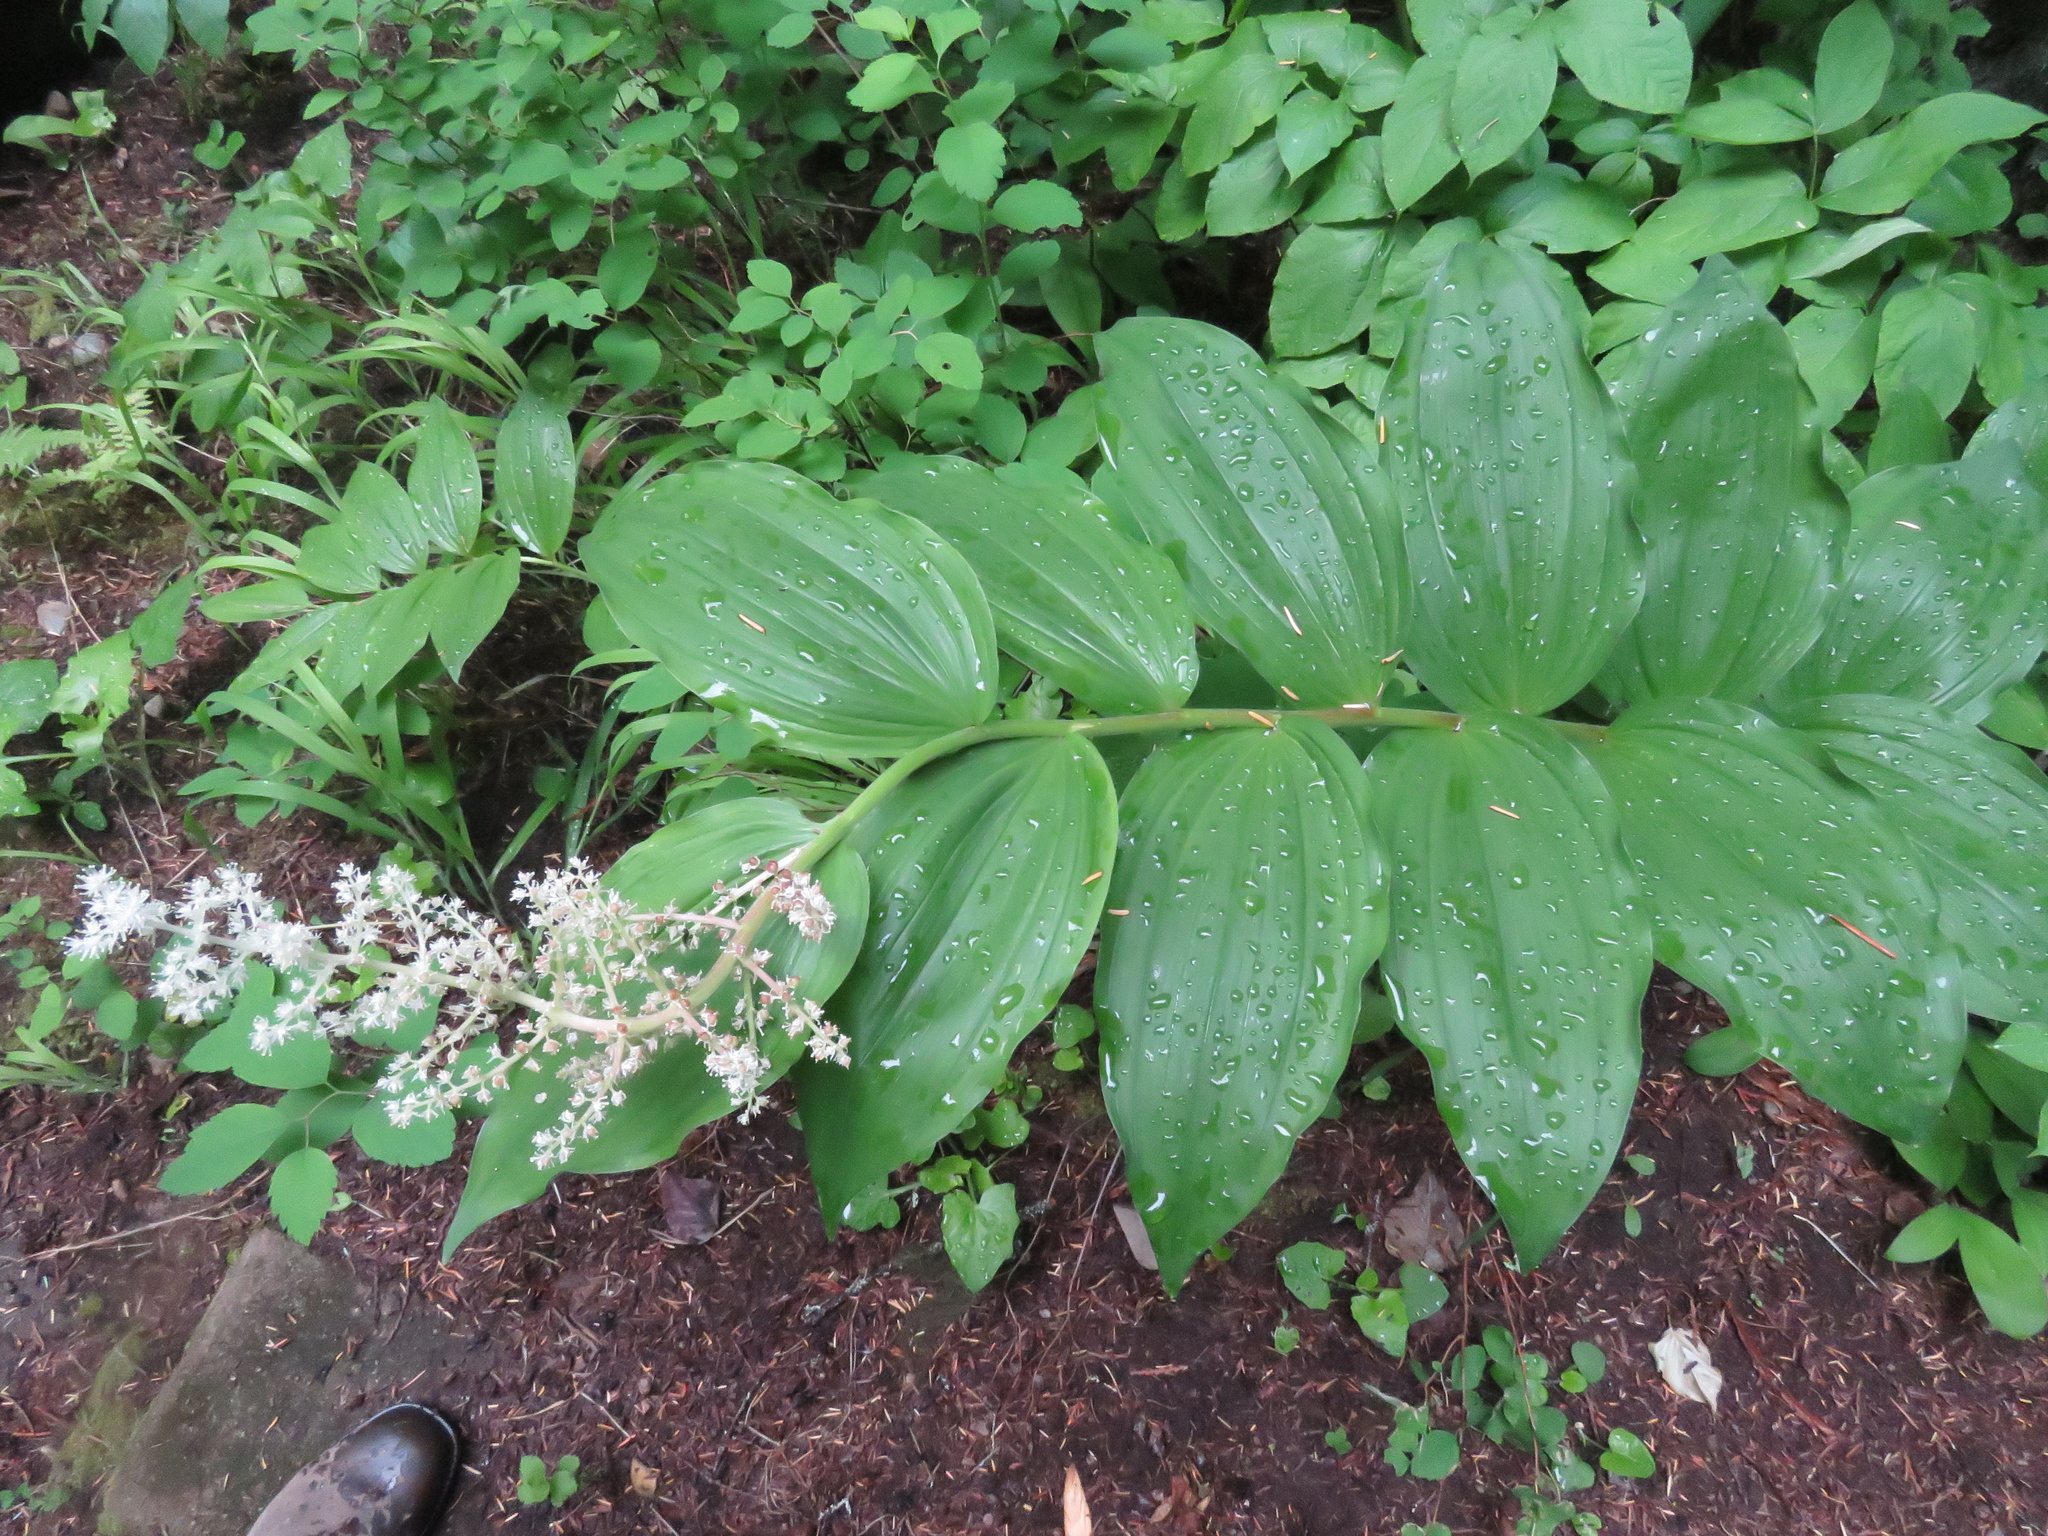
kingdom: Plantae
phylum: Tracheophyta
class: Liliopsida
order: Asparagales
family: Asparagaceae
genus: Maianthemum
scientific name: Maianthemum racemosum
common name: False spikenard
